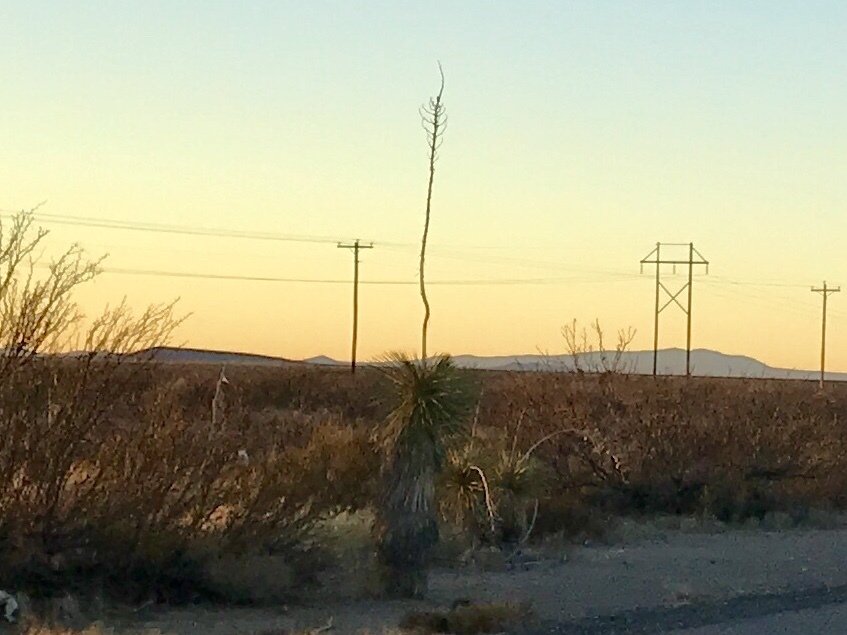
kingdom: Plantae
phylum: Tracheophyta
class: Liliopsida
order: Asparagales
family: Asparagaceae
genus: Yucca
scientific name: Yucca elata
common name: Palmella
